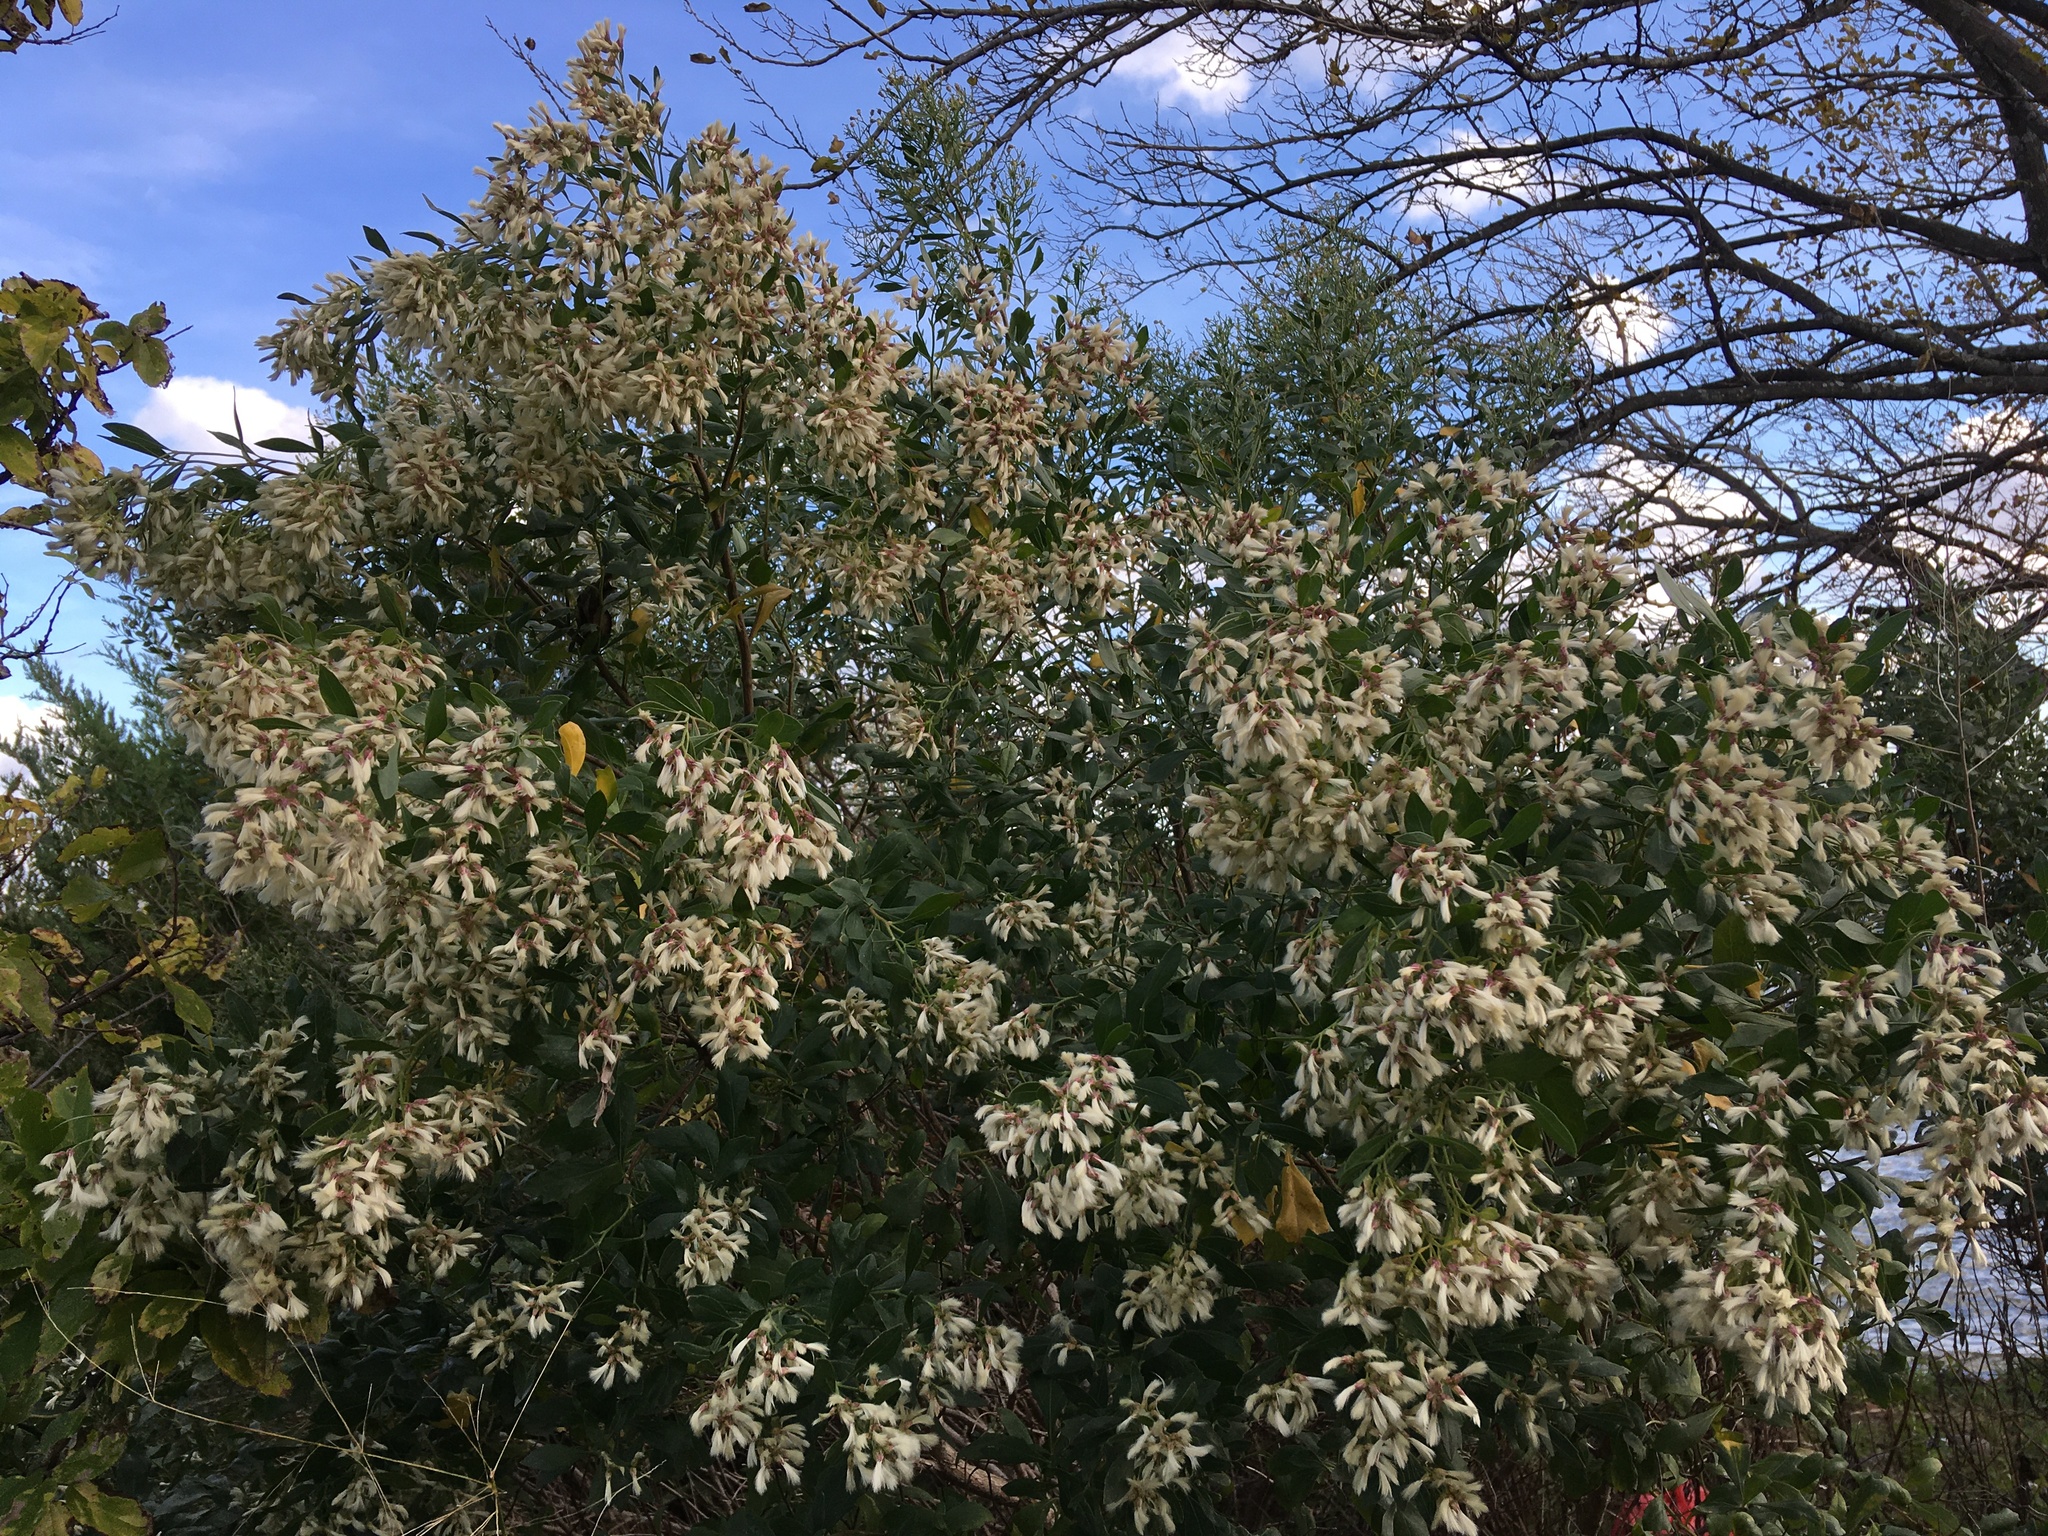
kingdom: Plantae
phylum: Tracheophyta
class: Magnoliopsida
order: Asterales
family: Asteraceae
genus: Baccharis
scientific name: Baccharis halimifolia
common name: Eastern baccharis
